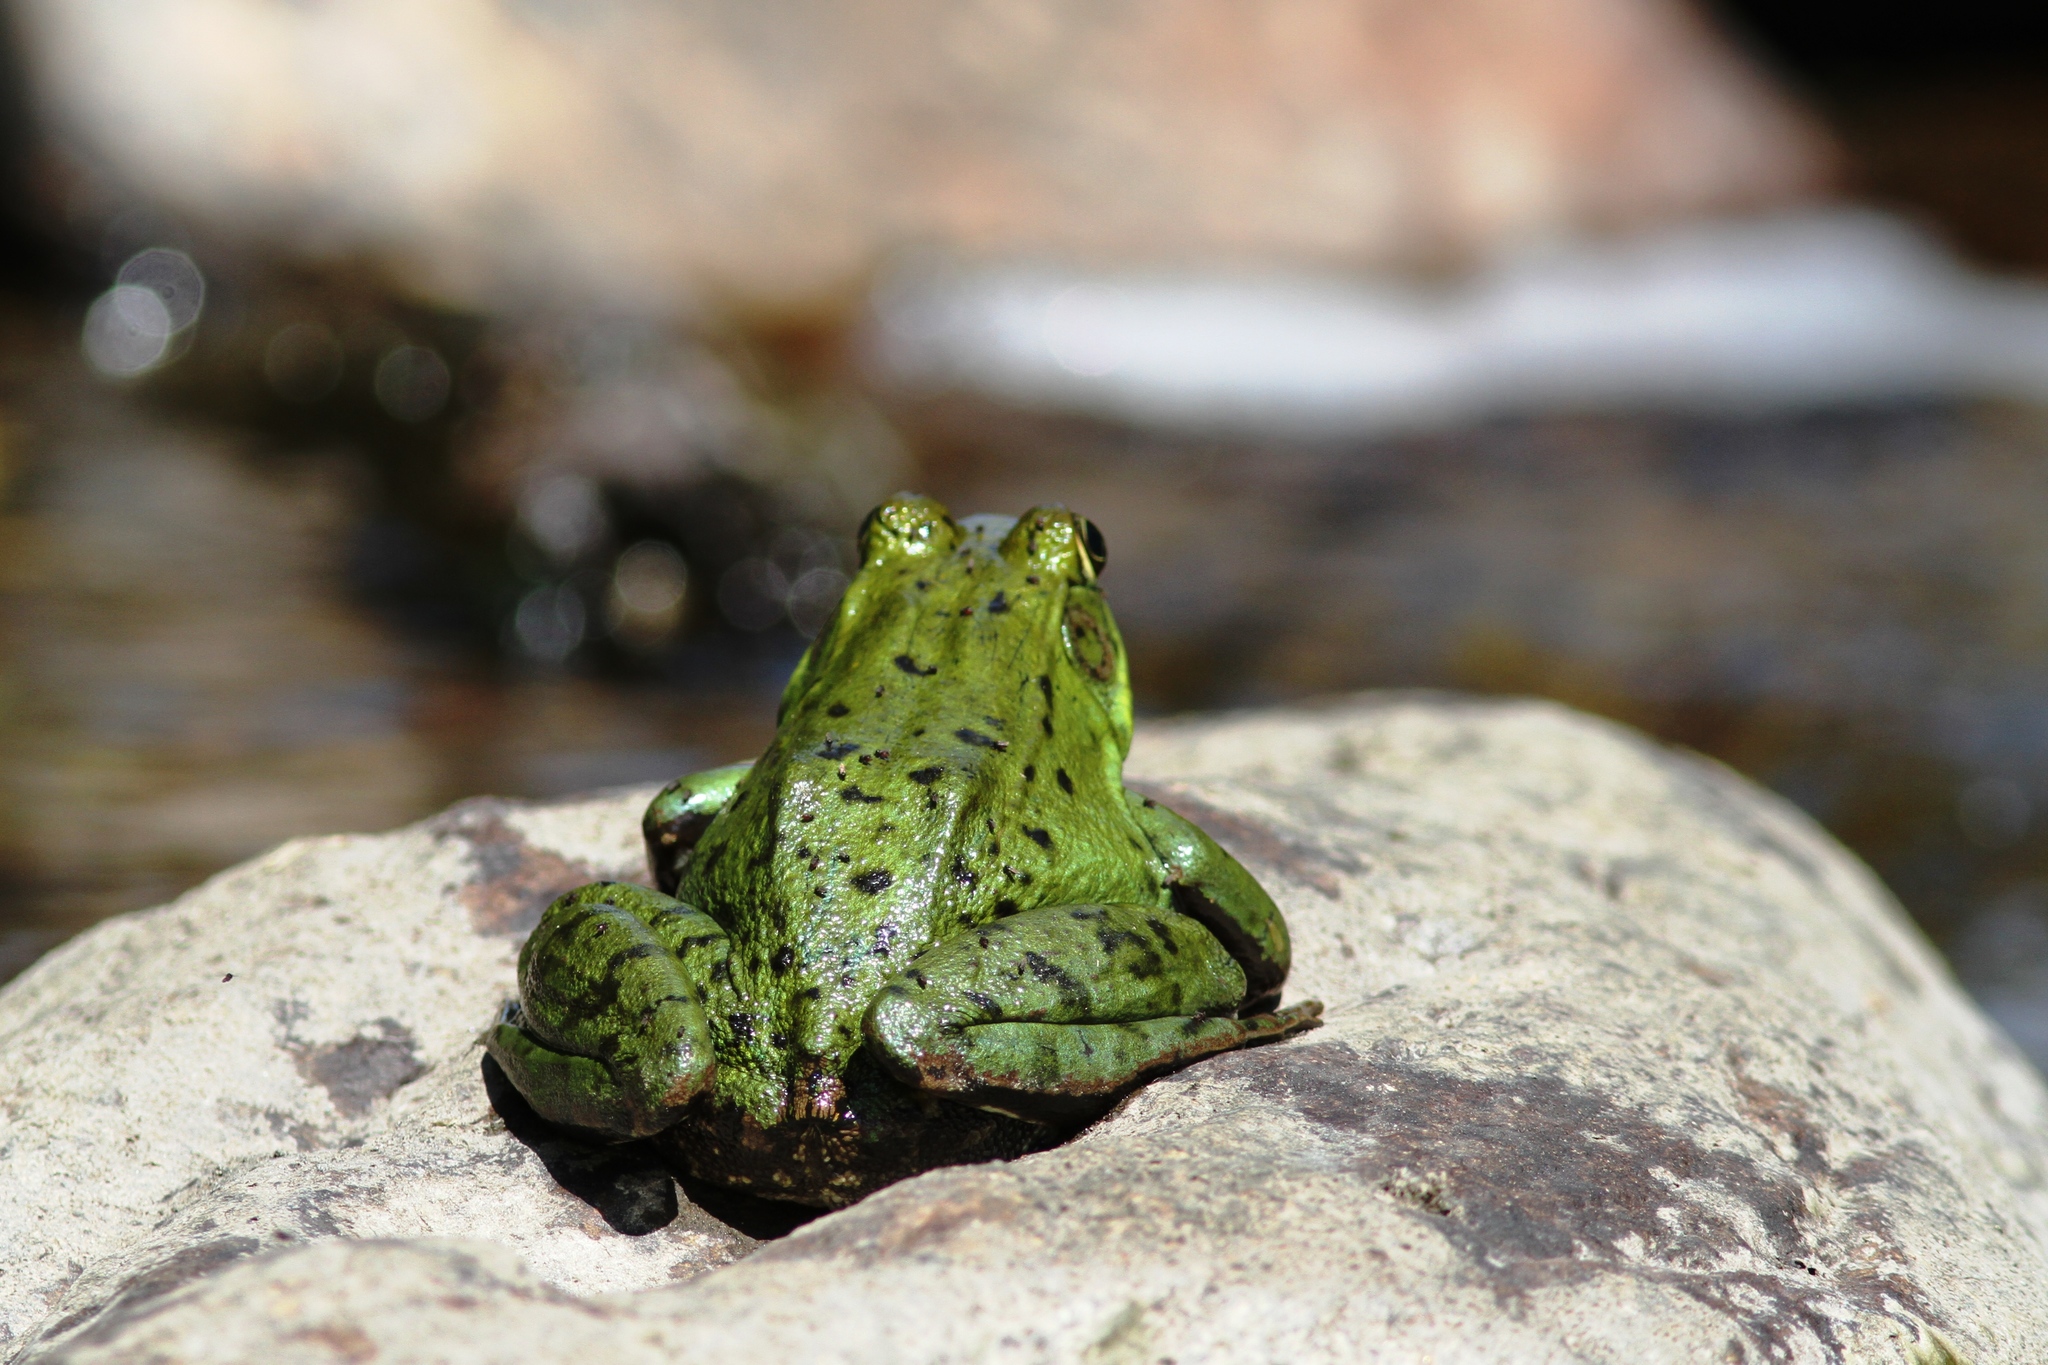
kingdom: Animalia
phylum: Chordata
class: Amphibia
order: Anura
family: Ranidae
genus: Lithobates
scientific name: Lithobates clamitans
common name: Green frog
